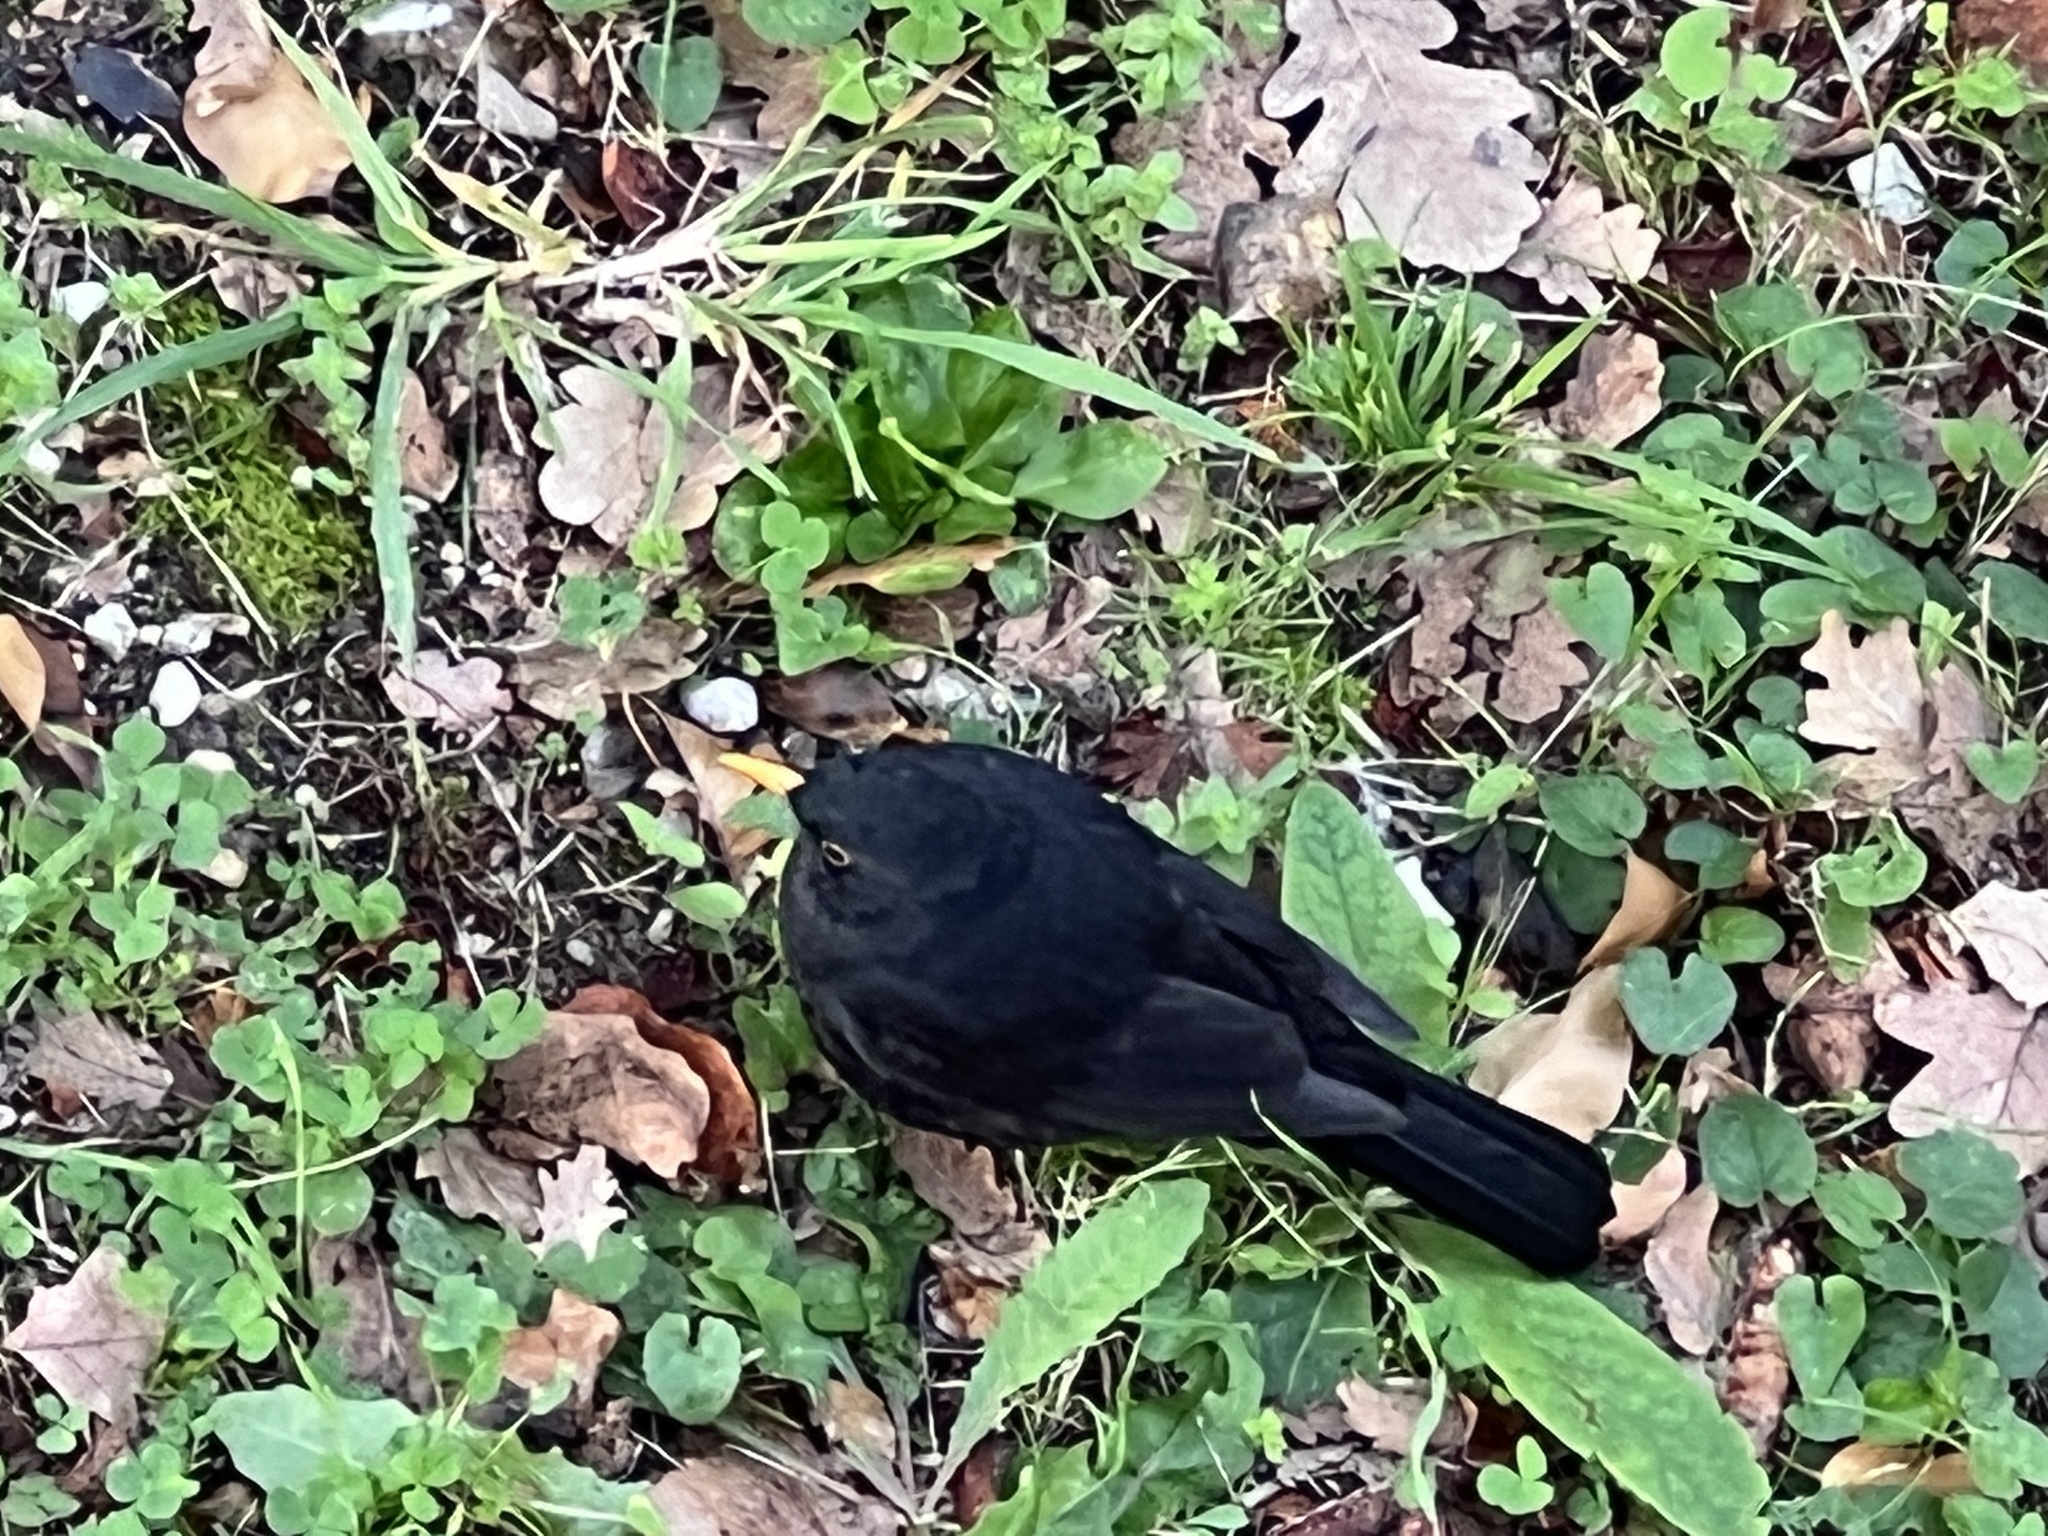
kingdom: Animalia
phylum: Chordata
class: Aves
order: Passeriformes
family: Turdidae
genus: Turdus
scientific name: Turdus merula
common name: Common blackbird
